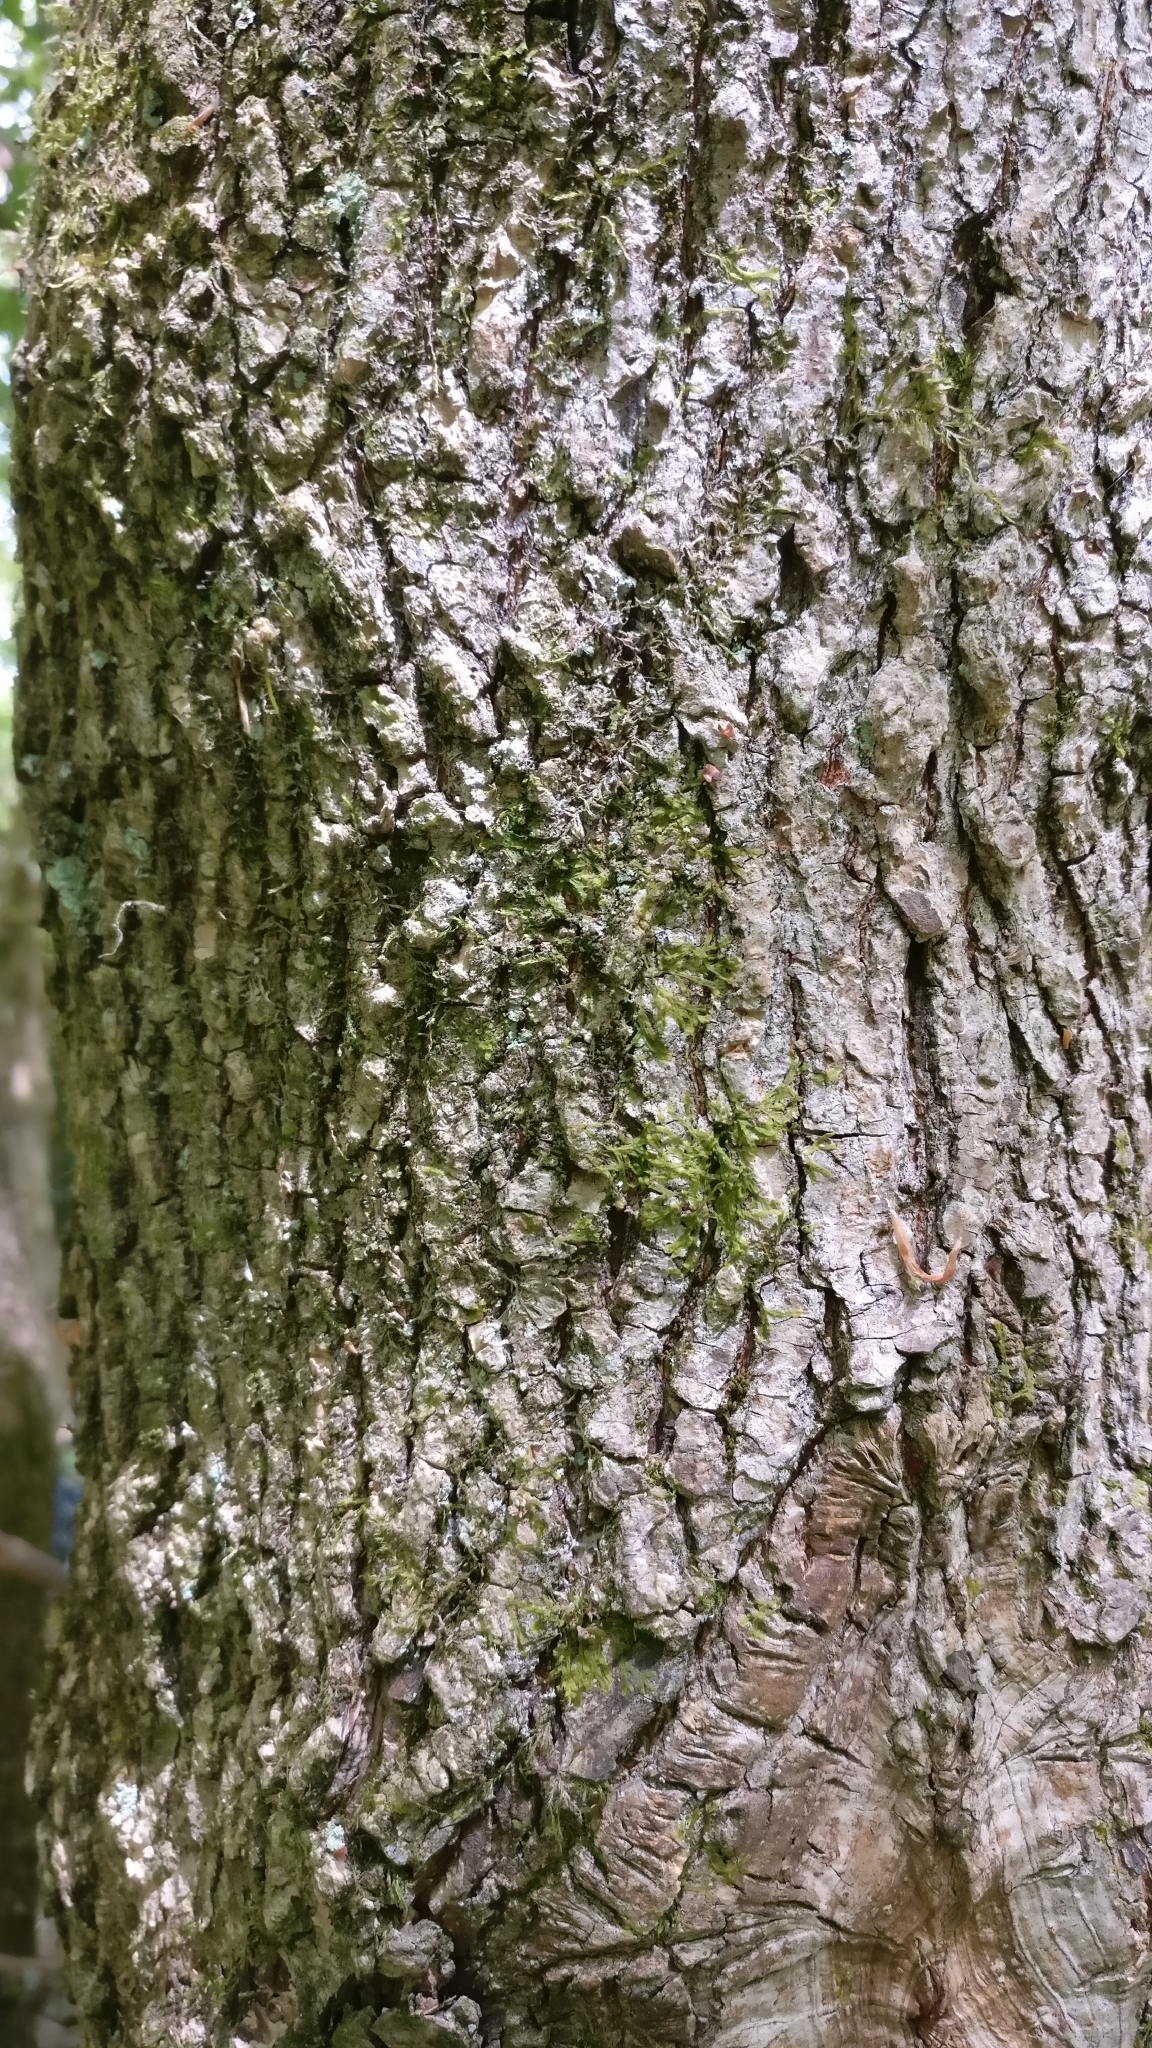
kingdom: Plantae
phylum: Tracheophyta
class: Magnoliopsida
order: Sapindales
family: Sapindaceae
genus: Acer
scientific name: Acer campestre
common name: Field maple
